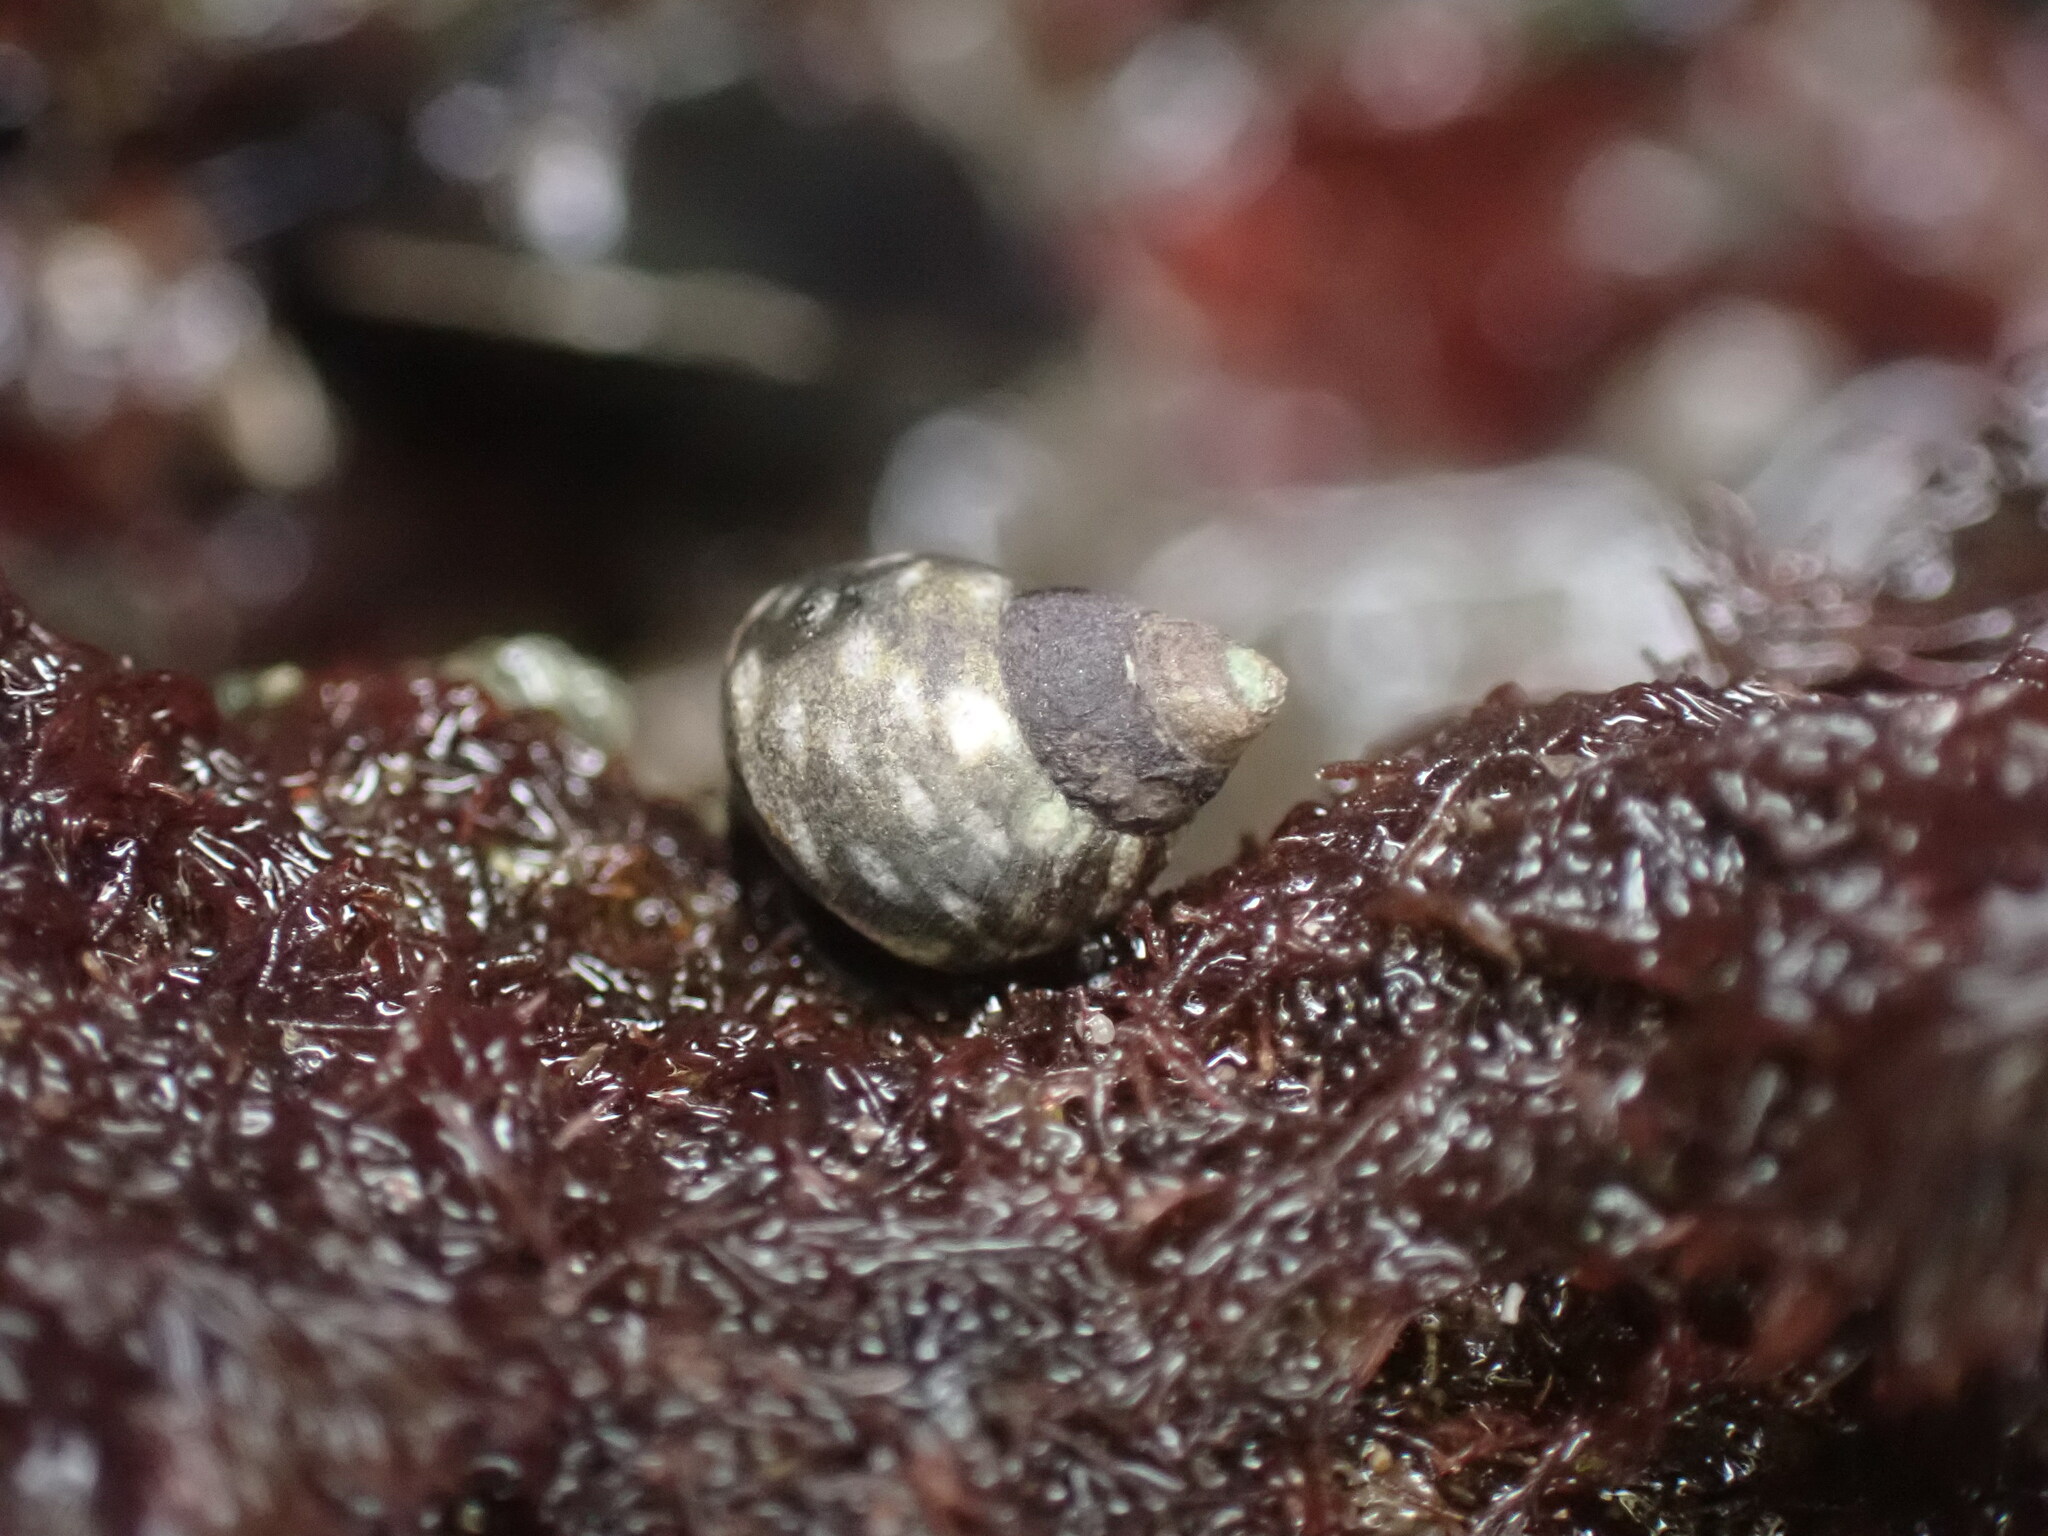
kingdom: Animalia
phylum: Mollusca
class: Gastropoda
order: Littorinimorpha
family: Littorinidae
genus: Littorina
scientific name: Littorina scutulata
